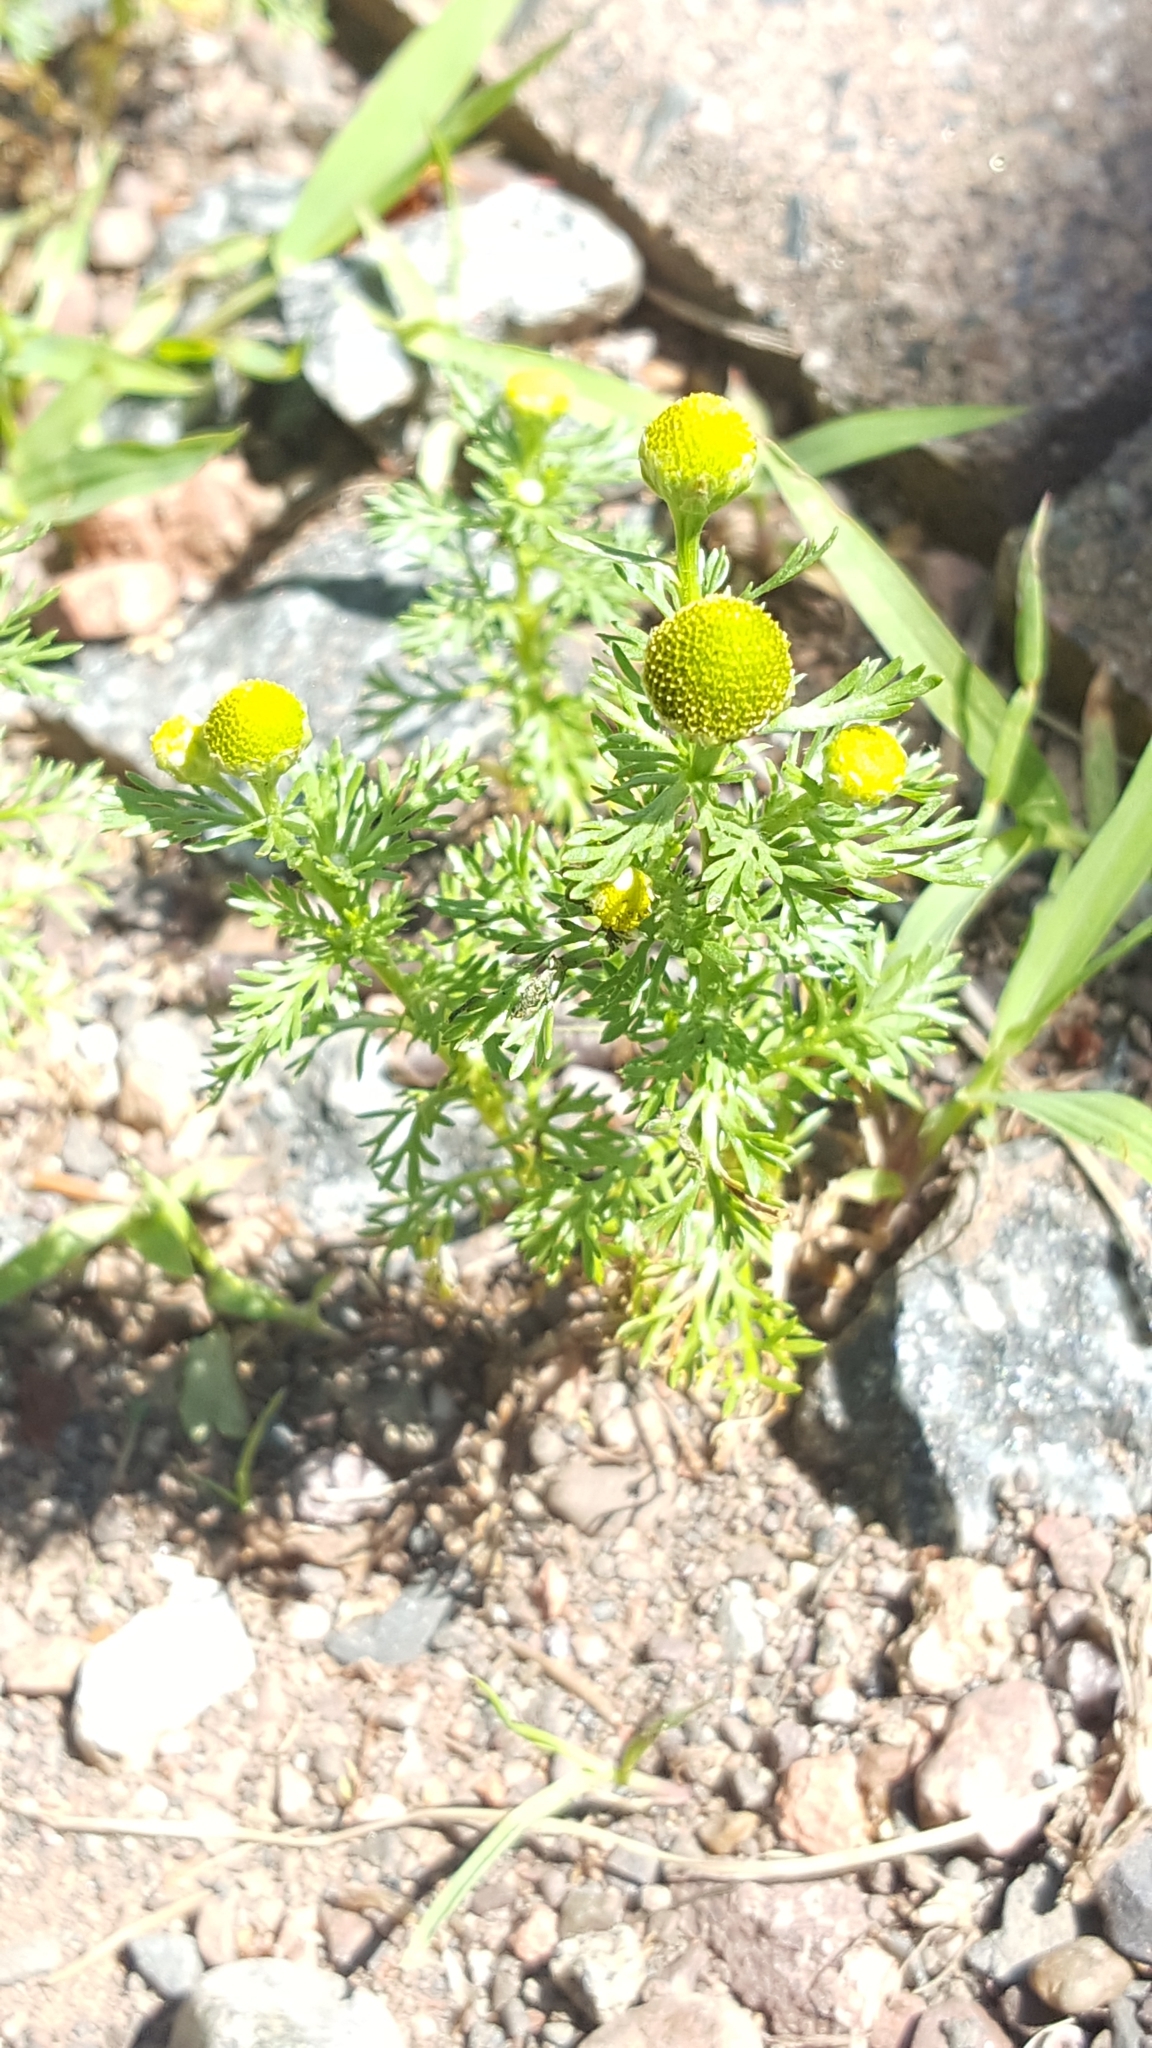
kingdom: Plantae
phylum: Tracheophyta
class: Magnoliopsida
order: Asterales
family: Asteraceae
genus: Matricaria
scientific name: Matricaria discoidea
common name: Disc mayweed
